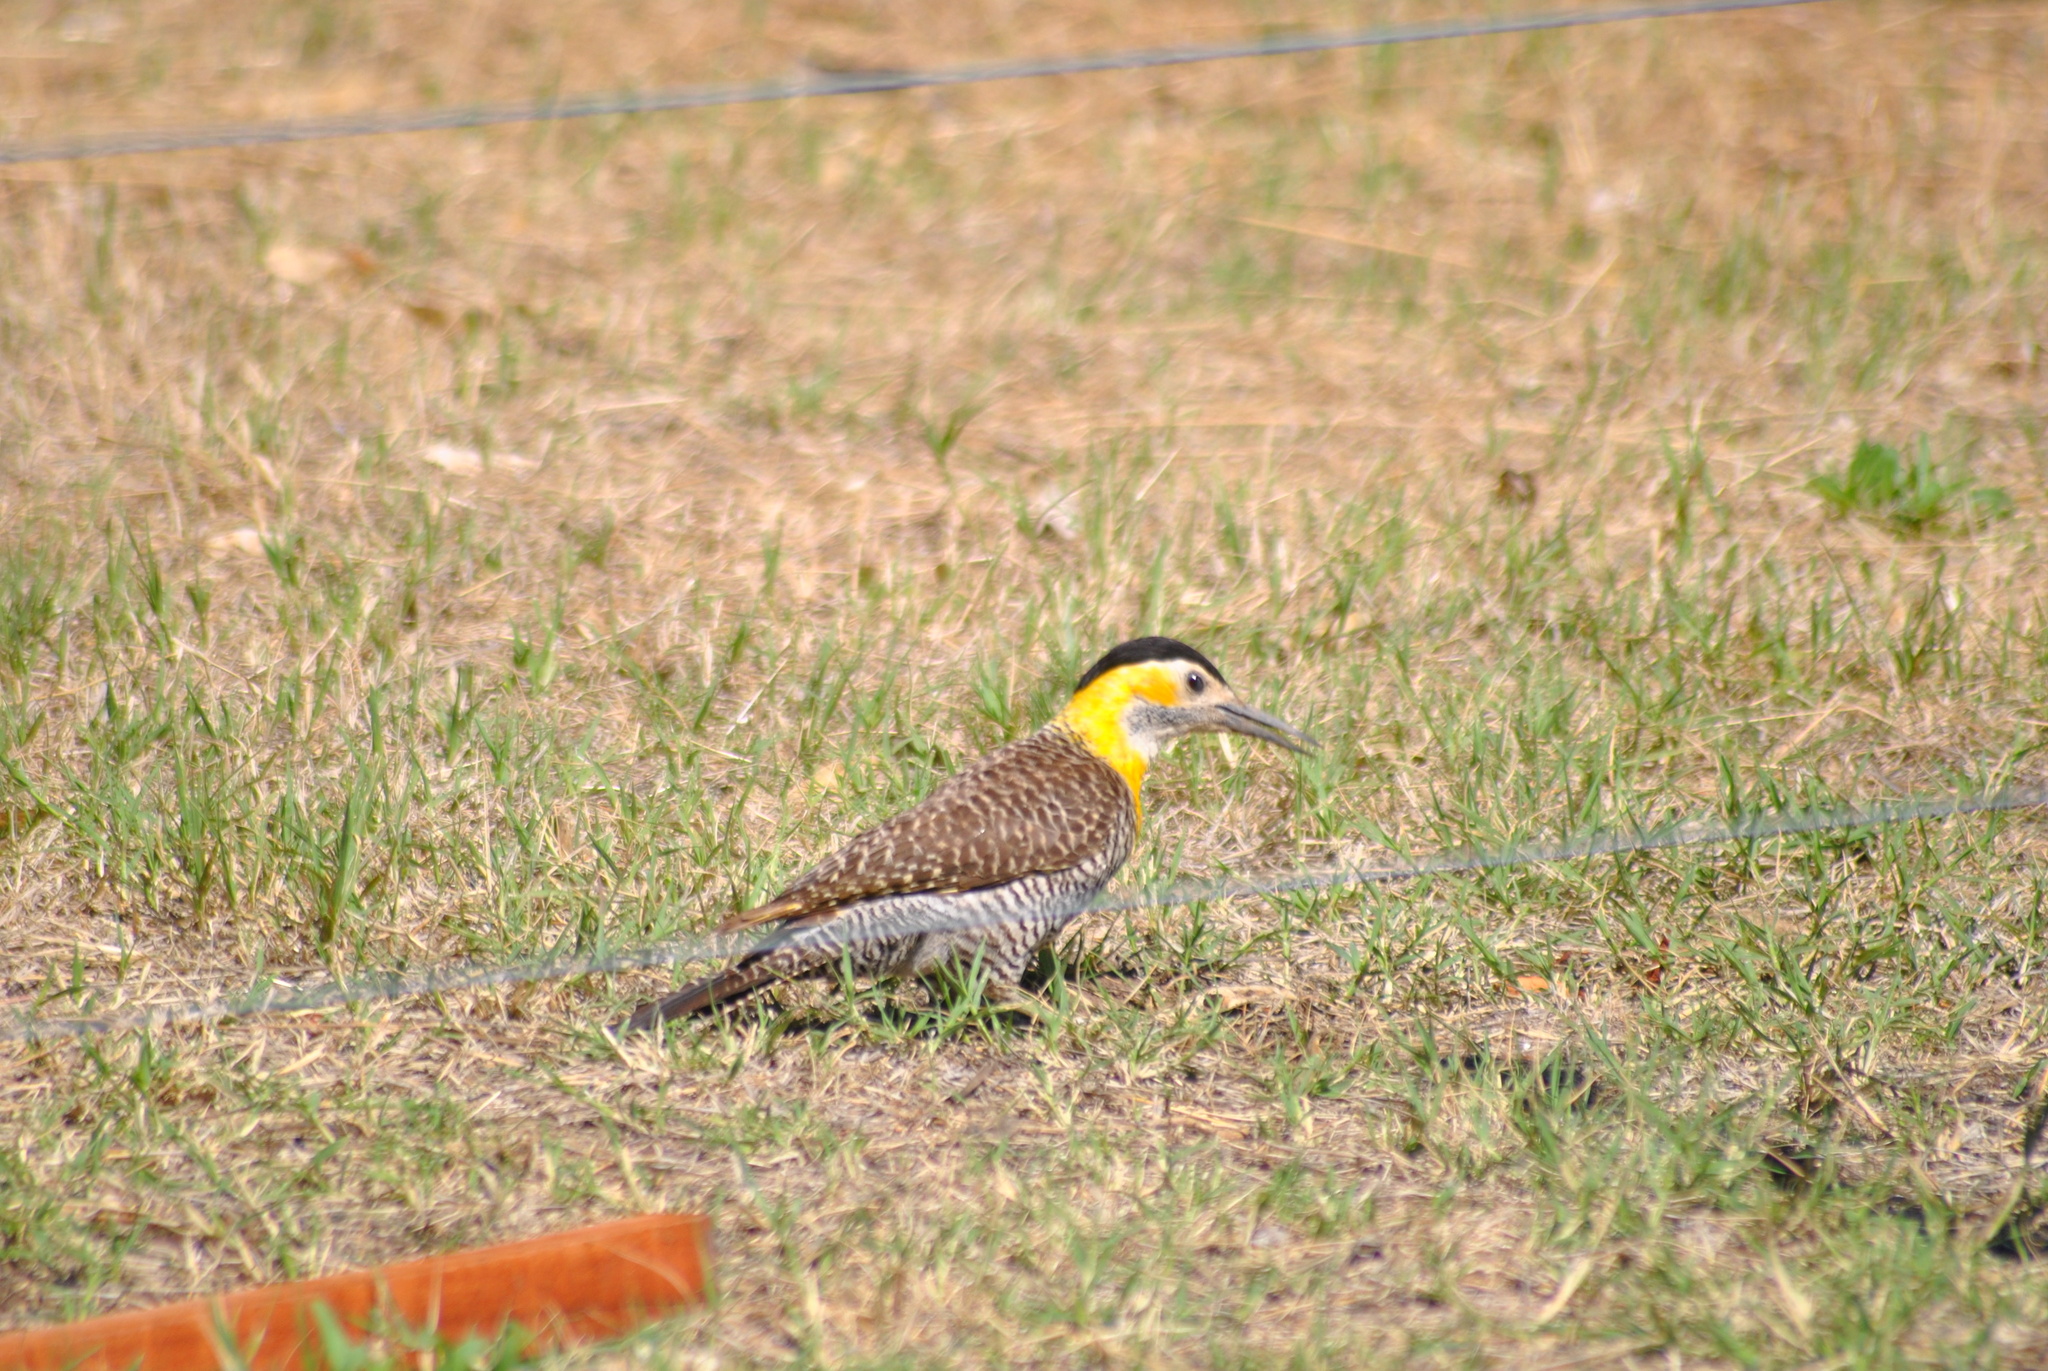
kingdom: Animalia
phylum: Chordata
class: Aves
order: Piciformes
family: Picidae
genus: Colaptes
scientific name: Colaptes campestris
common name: Campo flicker
